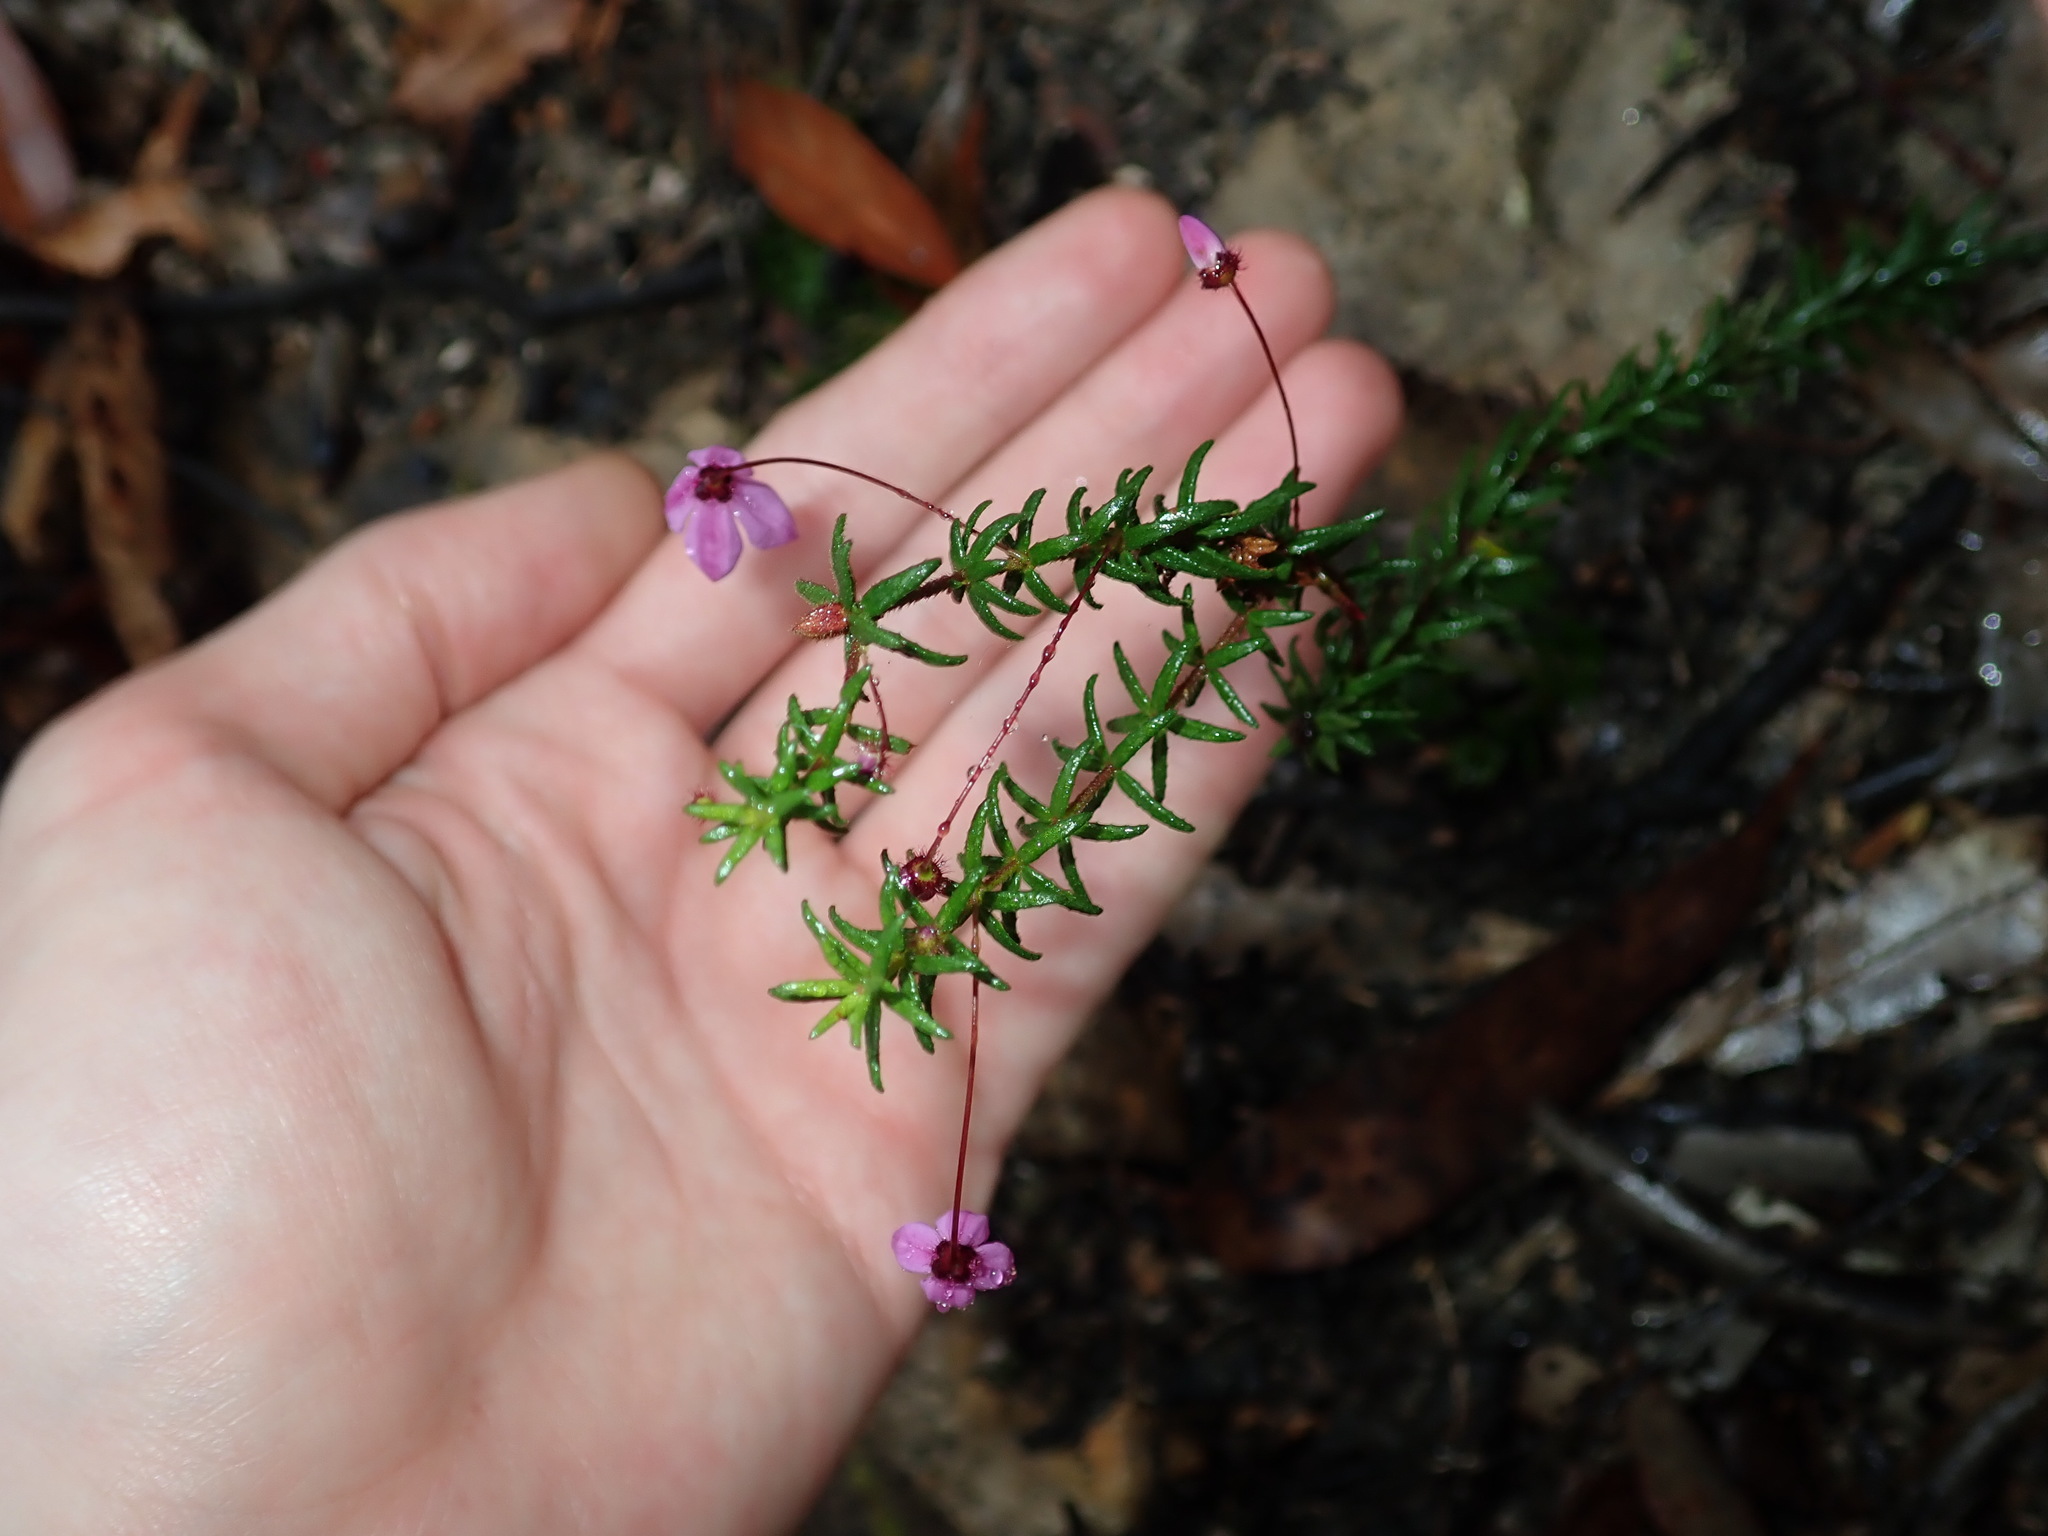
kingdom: Plantae
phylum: Tracheophyta
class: Magnoliopsida
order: Oxalidales
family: Elaeocarpaceae
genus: Tetratheca
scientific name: Tetratheca ericifolia
